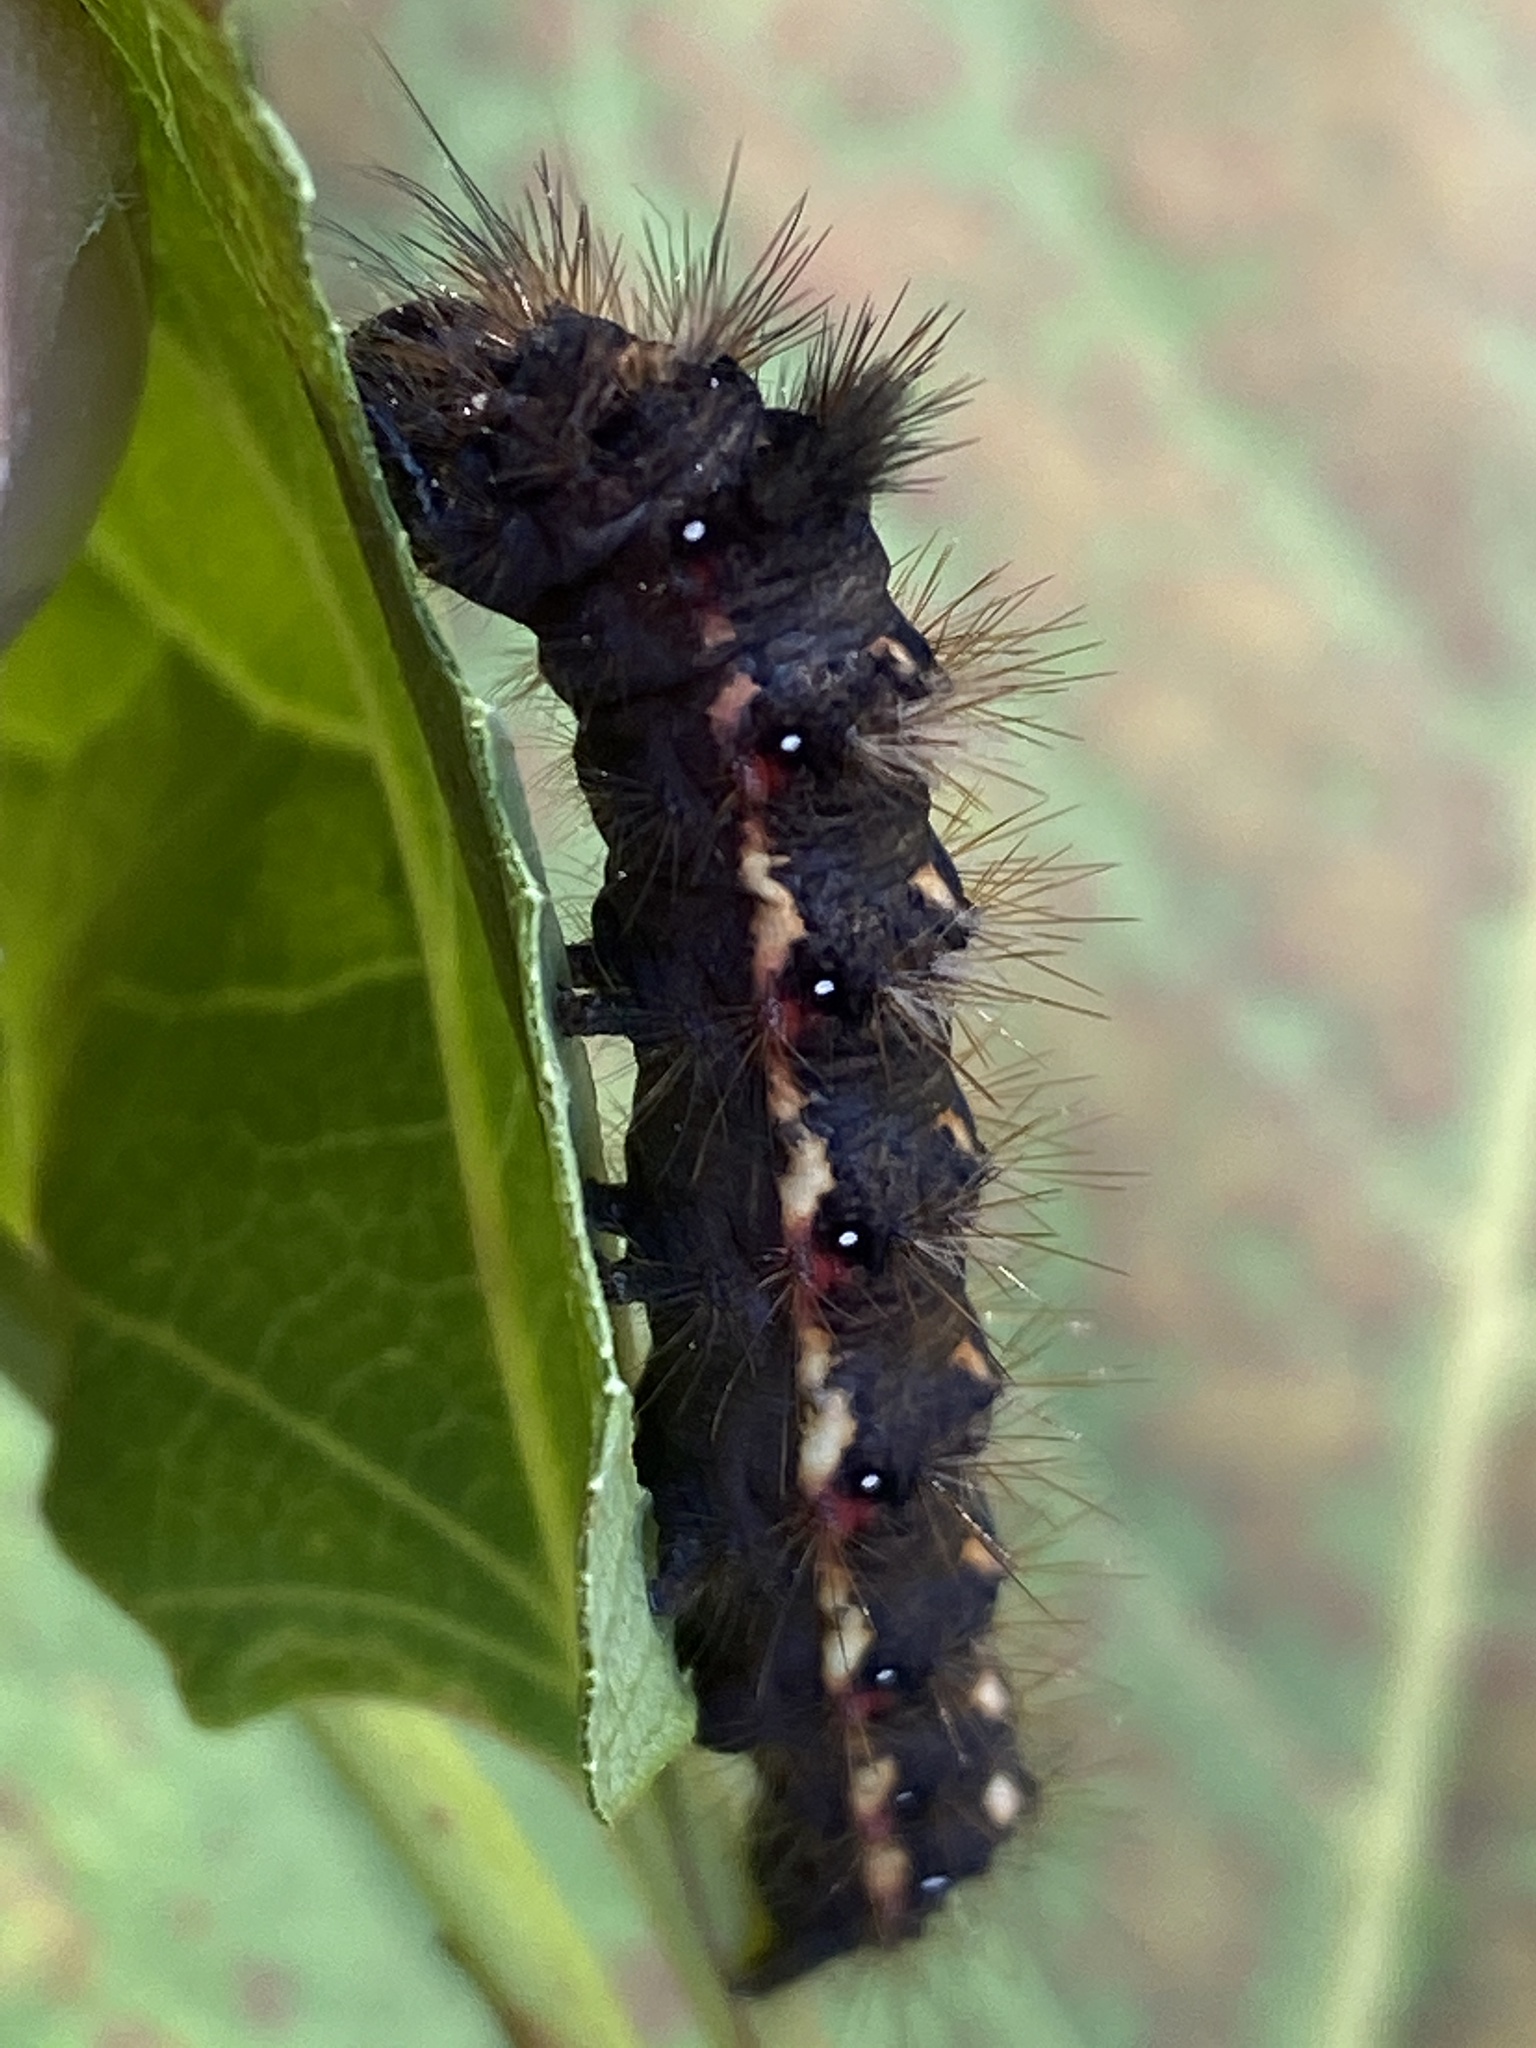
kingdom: Animalia
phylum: Arthropoda
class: Insecta
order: Lepidoptera
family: Noctuidae
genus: Acronicta
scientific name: Acronicta rumicis
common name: Knot grass
